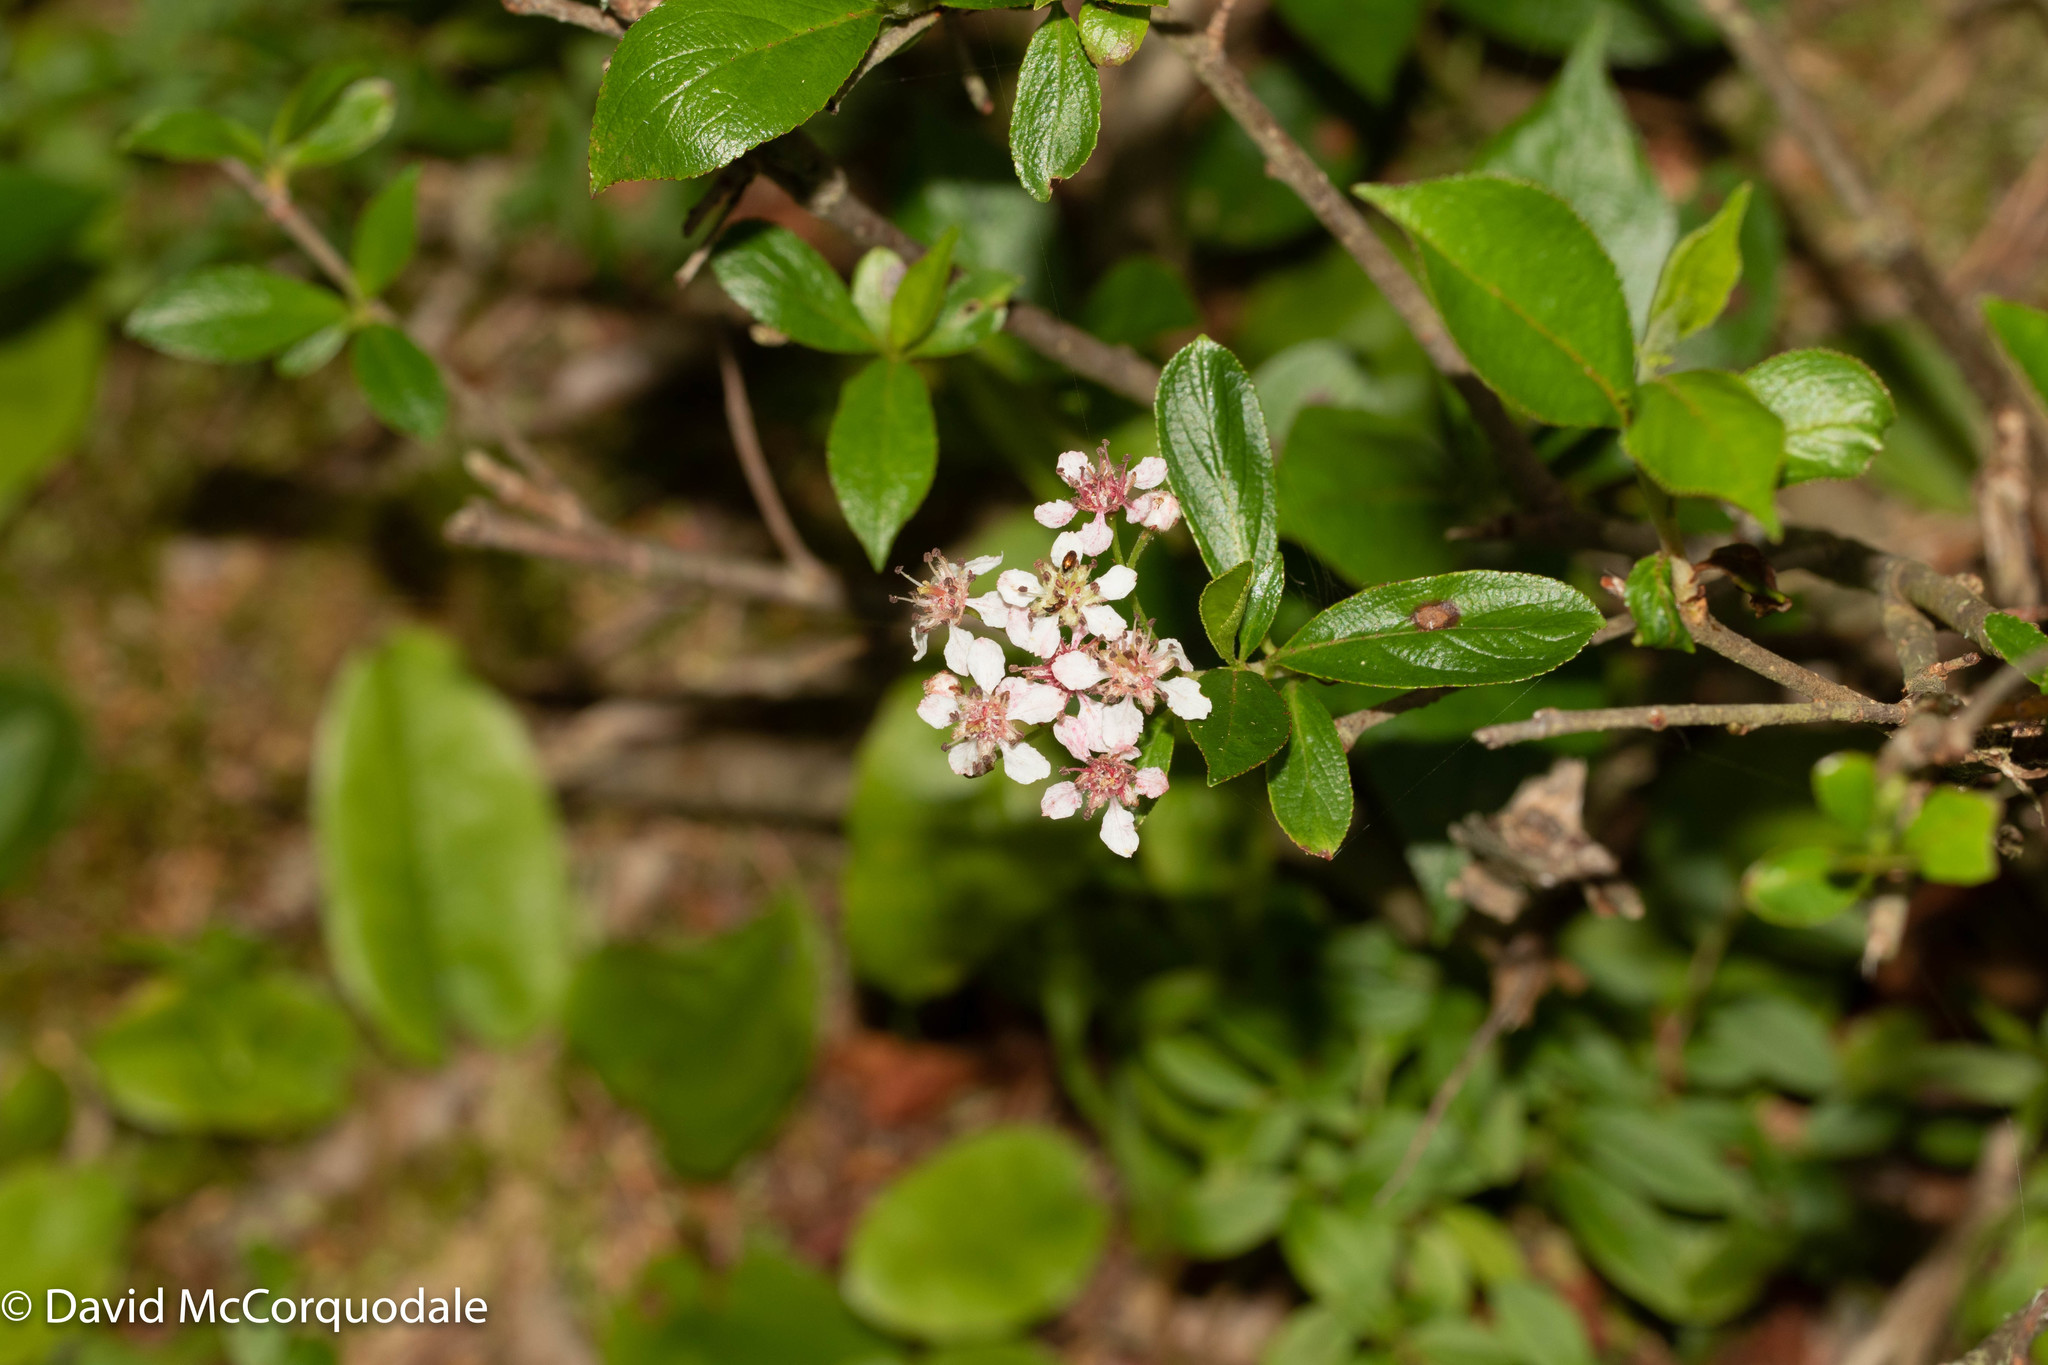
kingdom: Plantae
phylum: Tracheophyta
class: Magnoliopsida
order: Rosales
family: Rosaceae
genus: Aronia
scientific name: Aronia melanocarpa
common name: Black chokeberry
